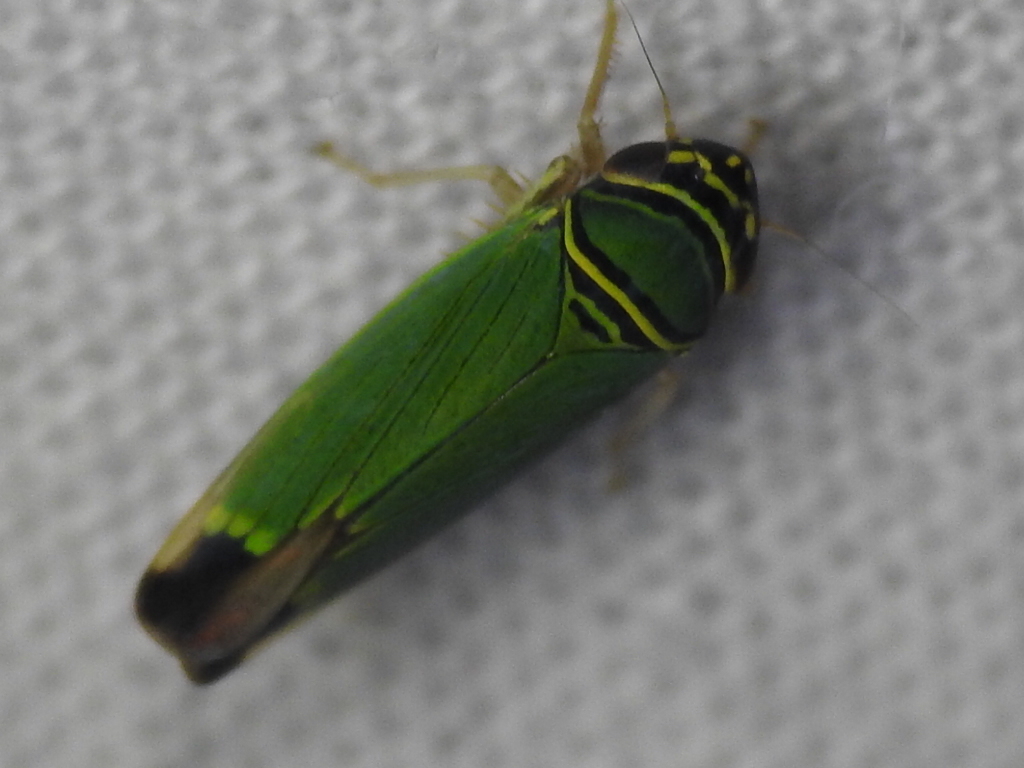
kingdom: Animalia
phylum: Arthropoda
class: Insecta
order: Hemiptera
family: Cicadellidae
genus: Tylozygus
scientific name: Tylozygus geometricus
